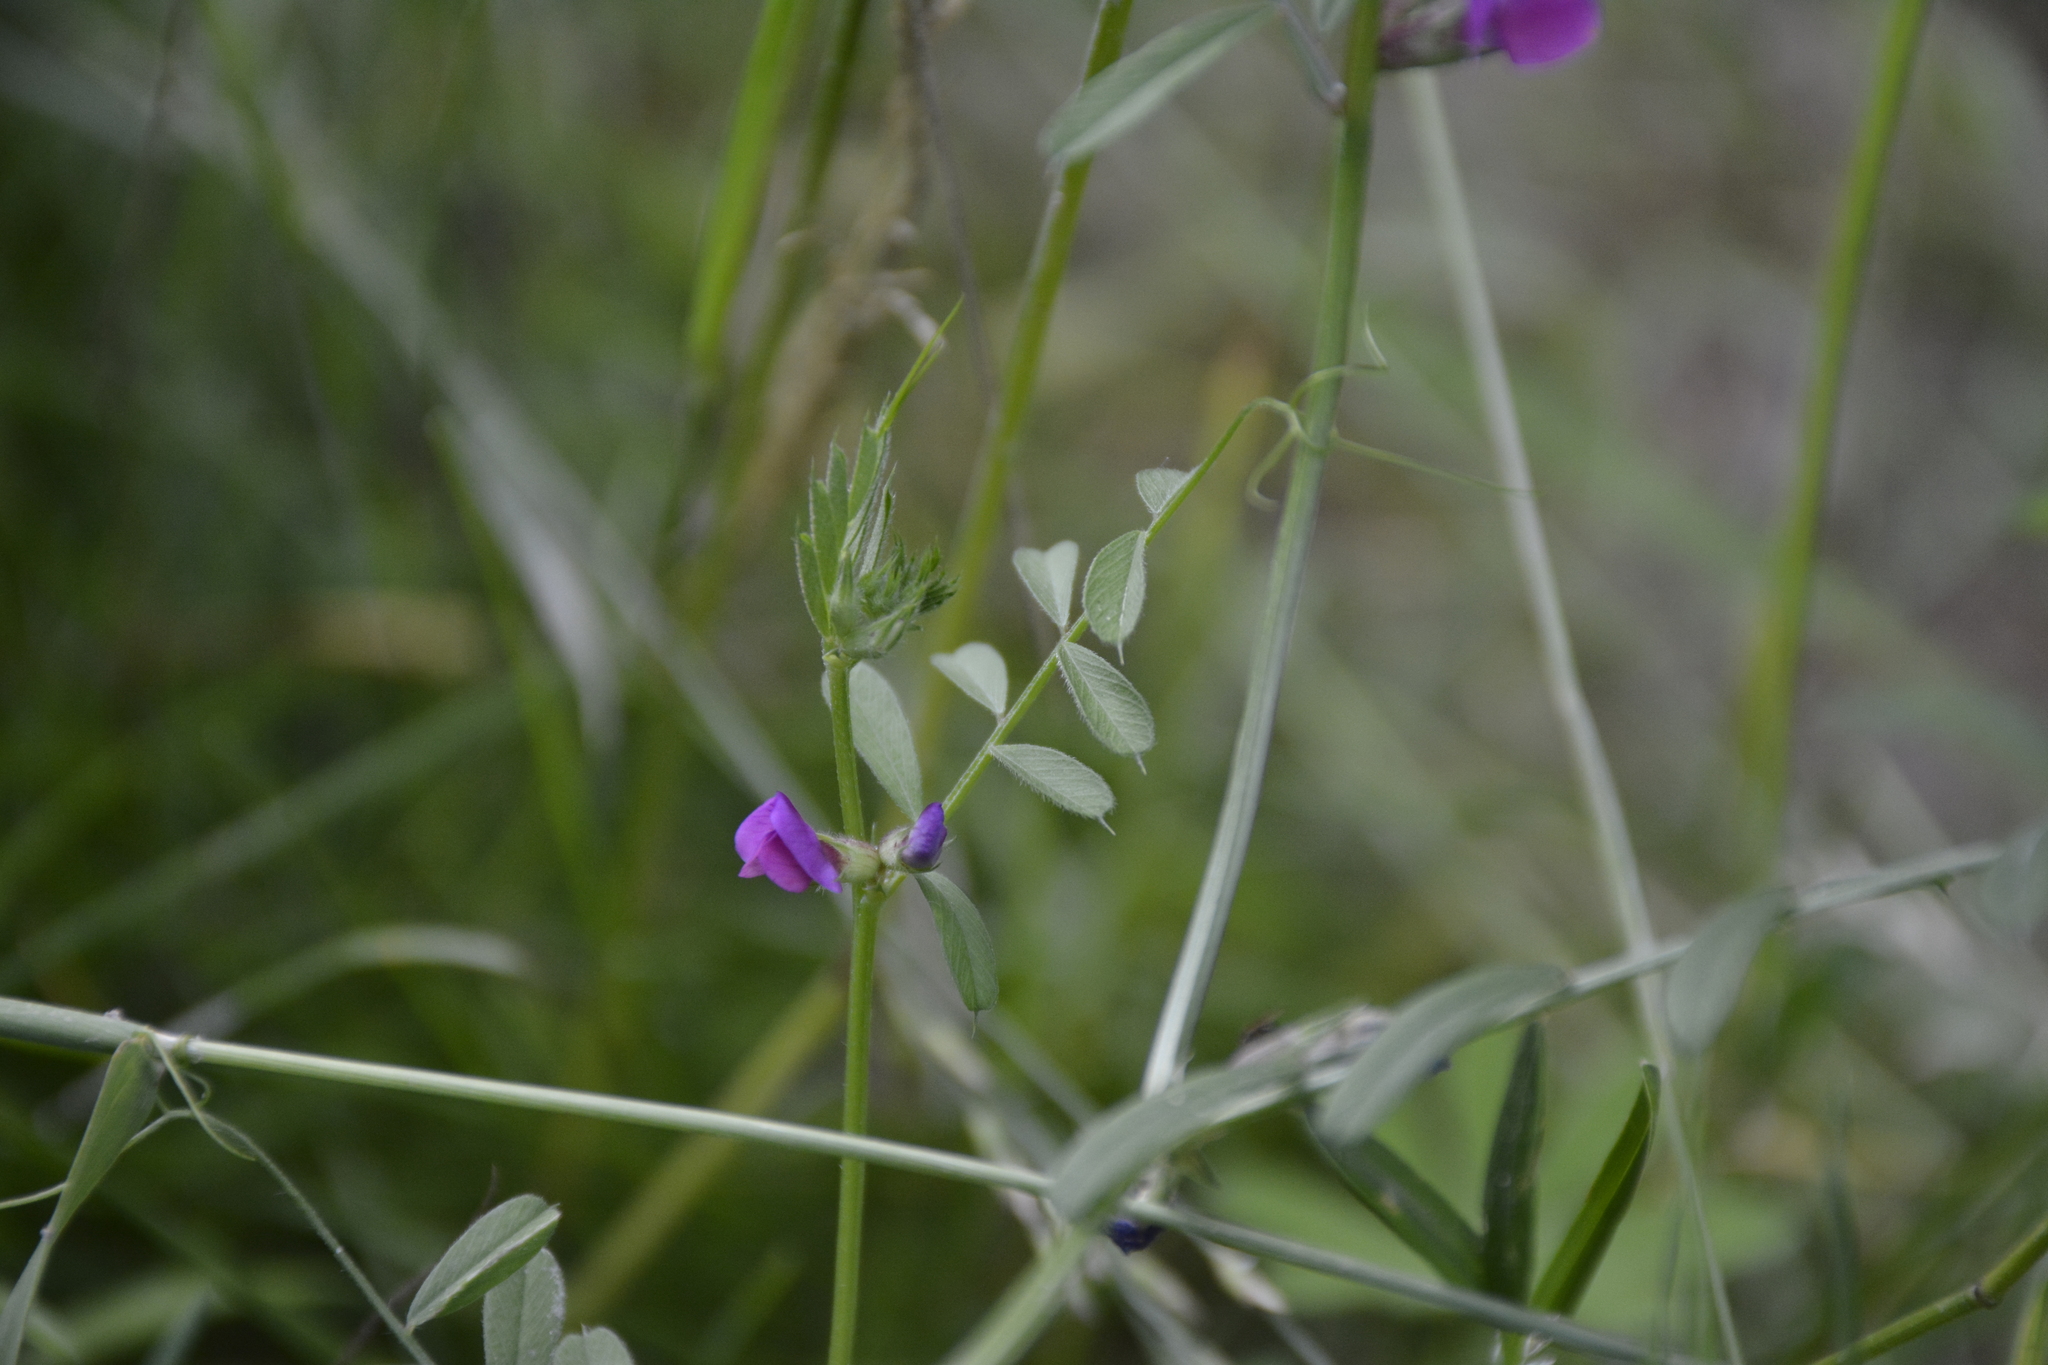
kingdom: Plantae
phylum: Tracheophyta
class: Magnoliopsida
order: Fabales
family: Fabaceae
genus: Vicia
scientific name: Vicia sativa
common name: Garden vetch
